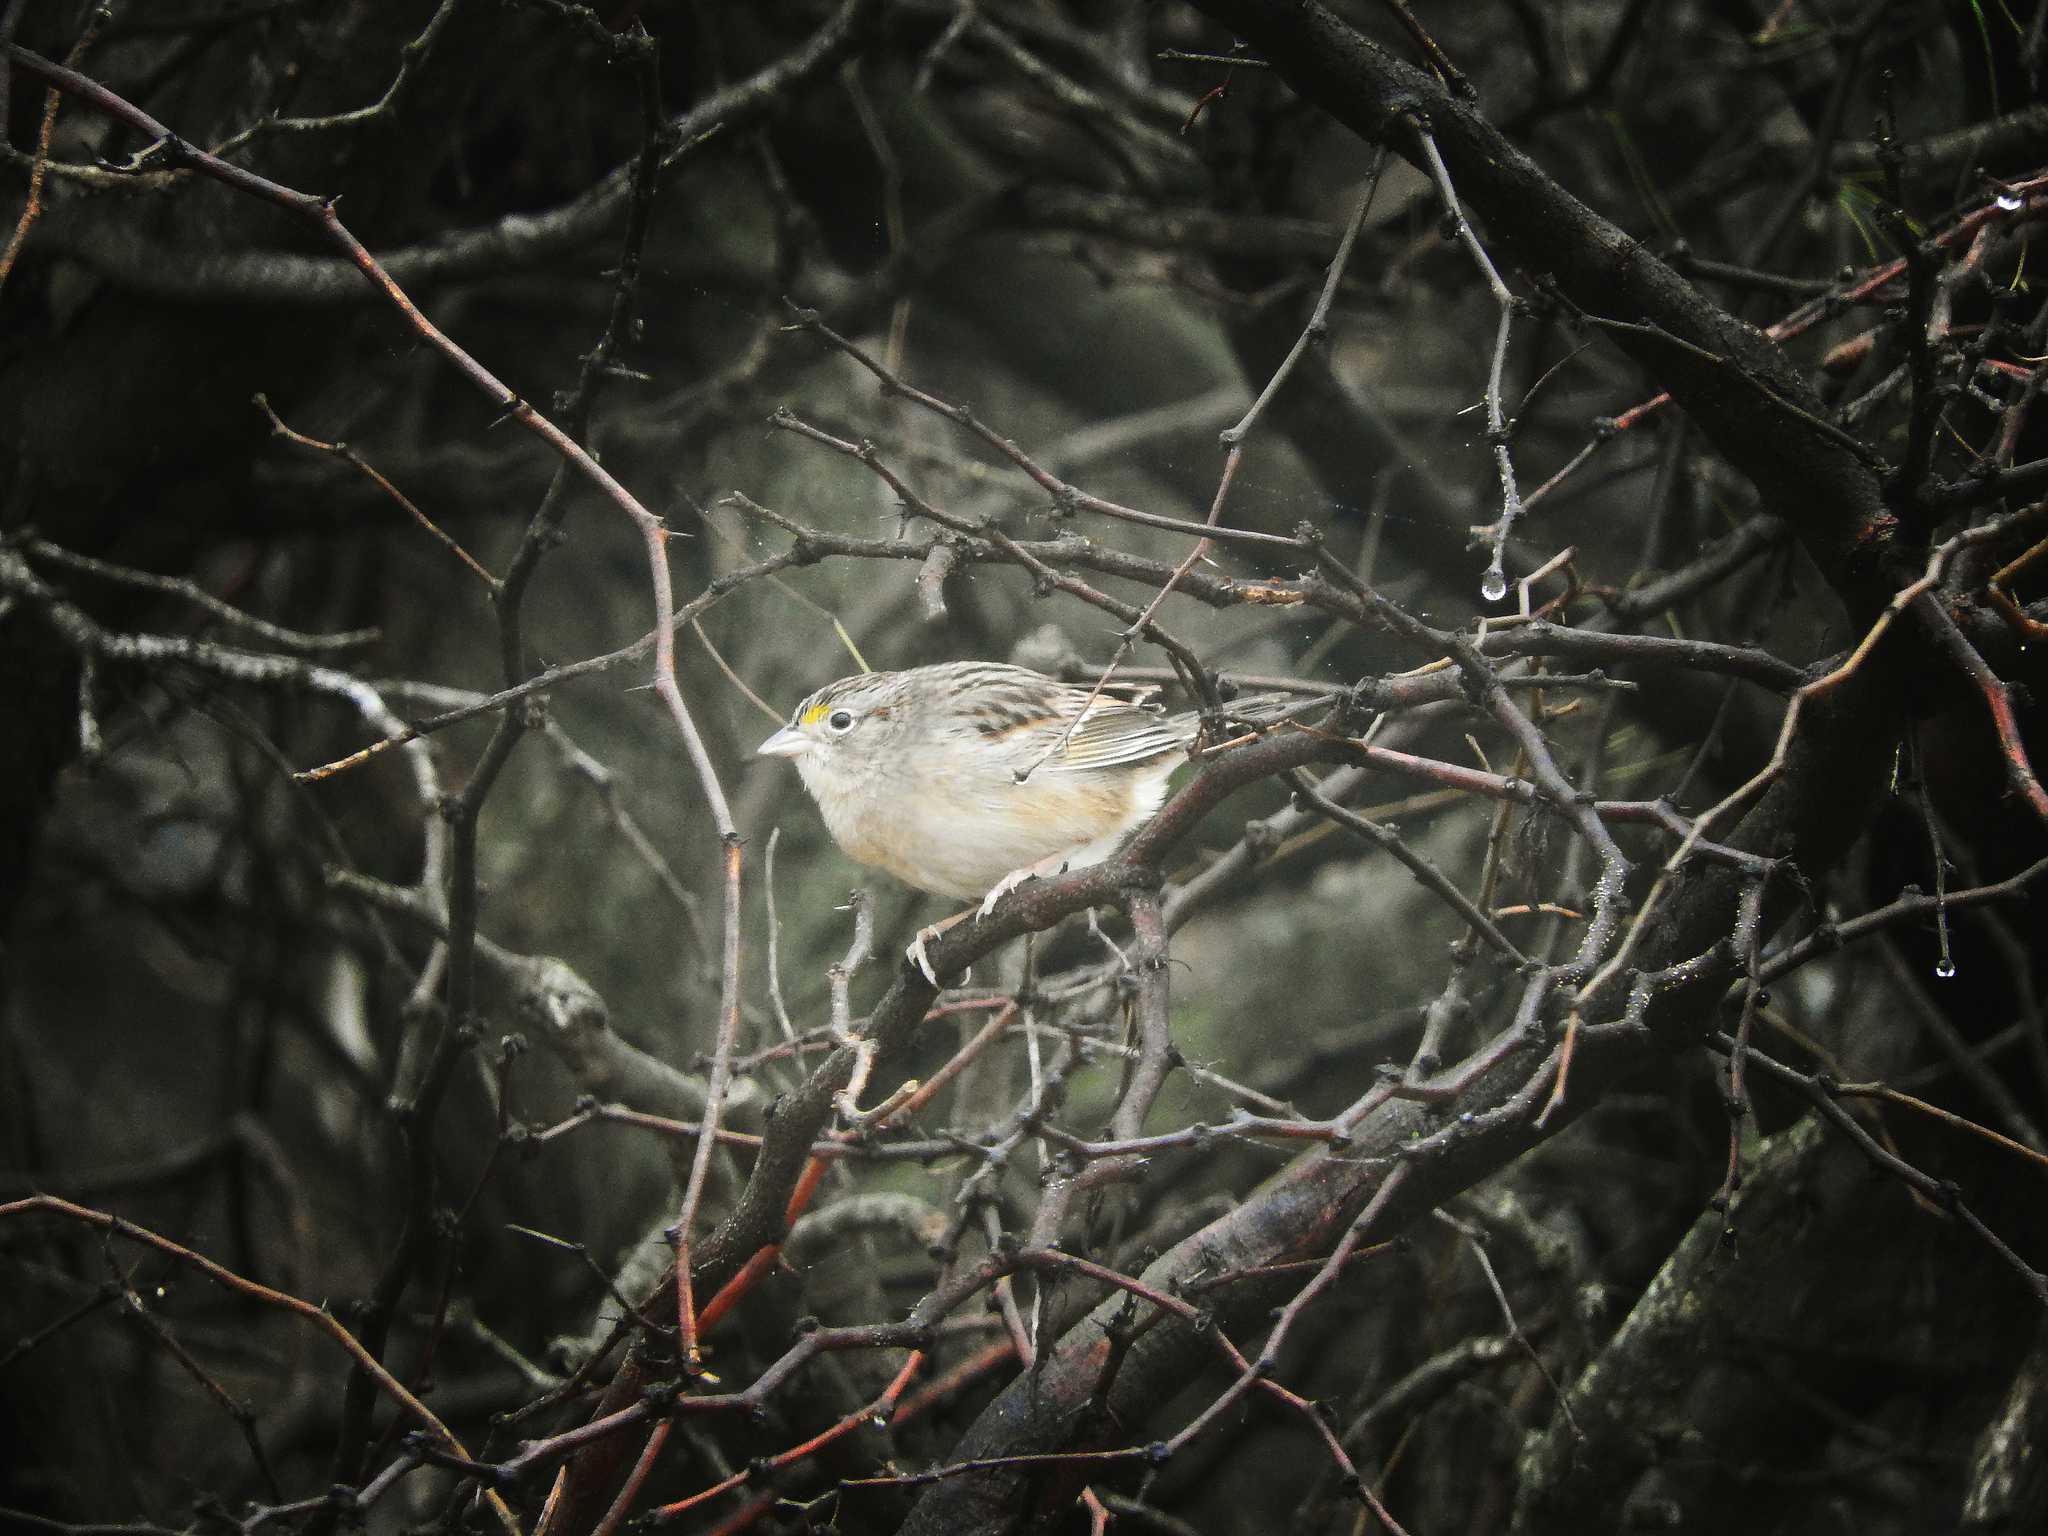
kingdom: Animalia
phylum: Chordata
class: Aves
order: Passeriformes
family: Passerellidae
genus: Ammodramus
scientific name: Ammodramus humeralis
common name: Grassland sparrow
